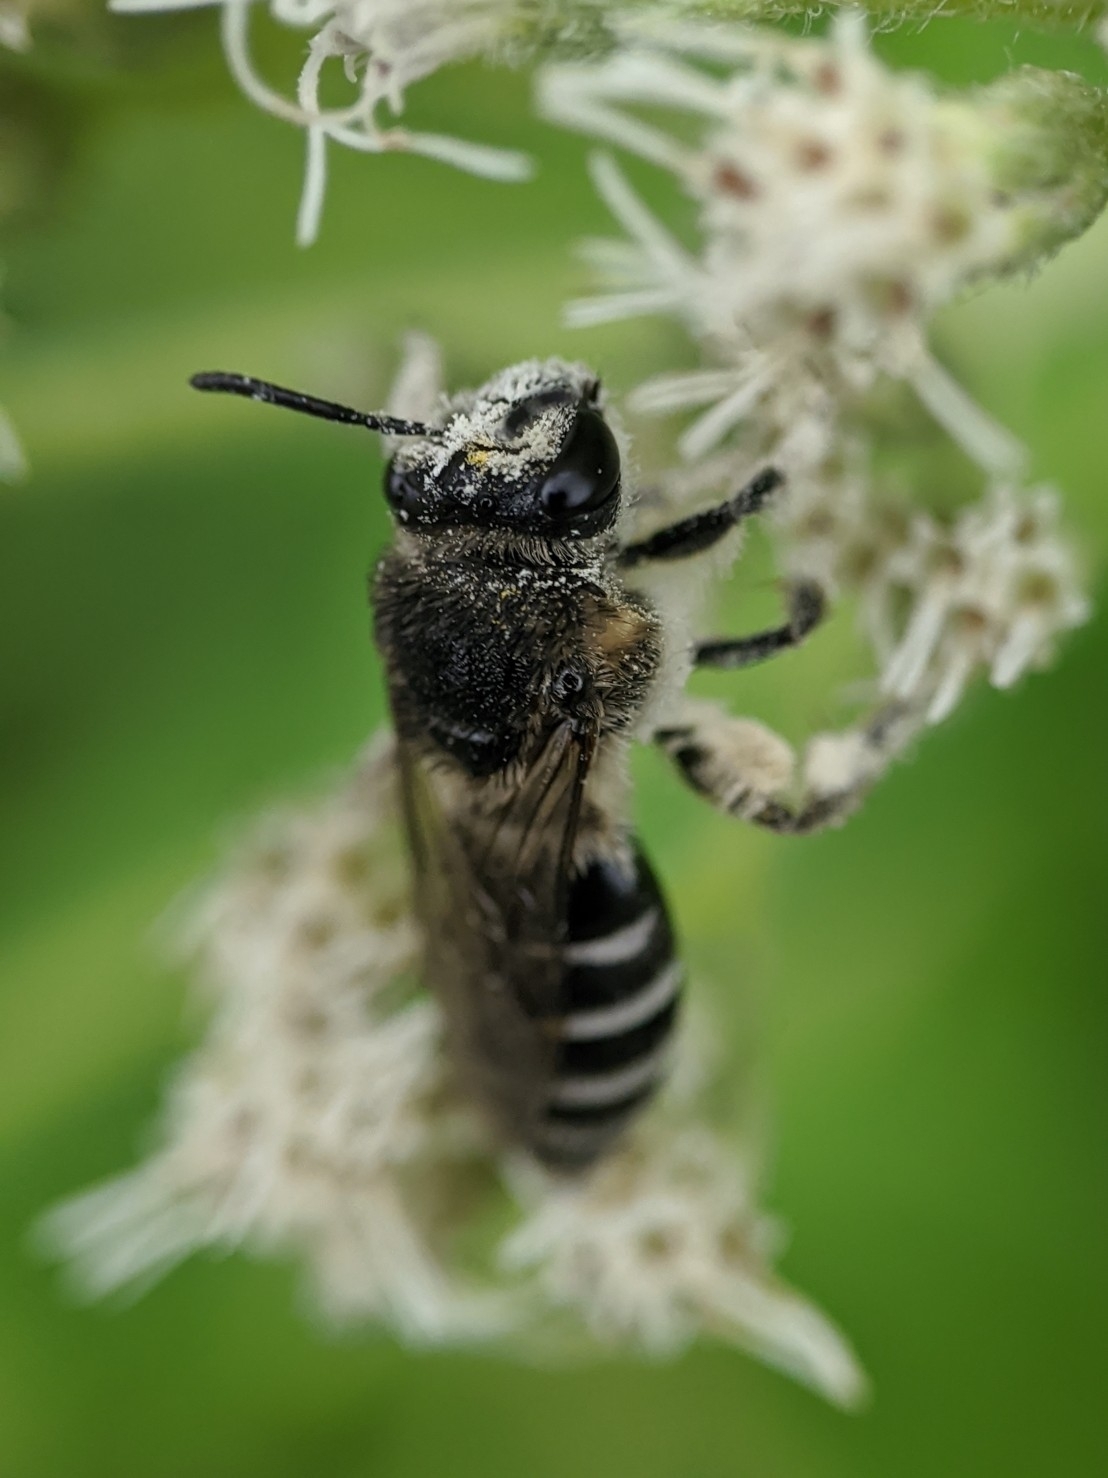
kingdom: Animalia
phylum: Arthropoda
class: Insecta
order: Hymenoptera
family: Colletidae
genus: Colletes
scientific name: Colletes simulans
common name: Spine-shouldered cellophane bee
